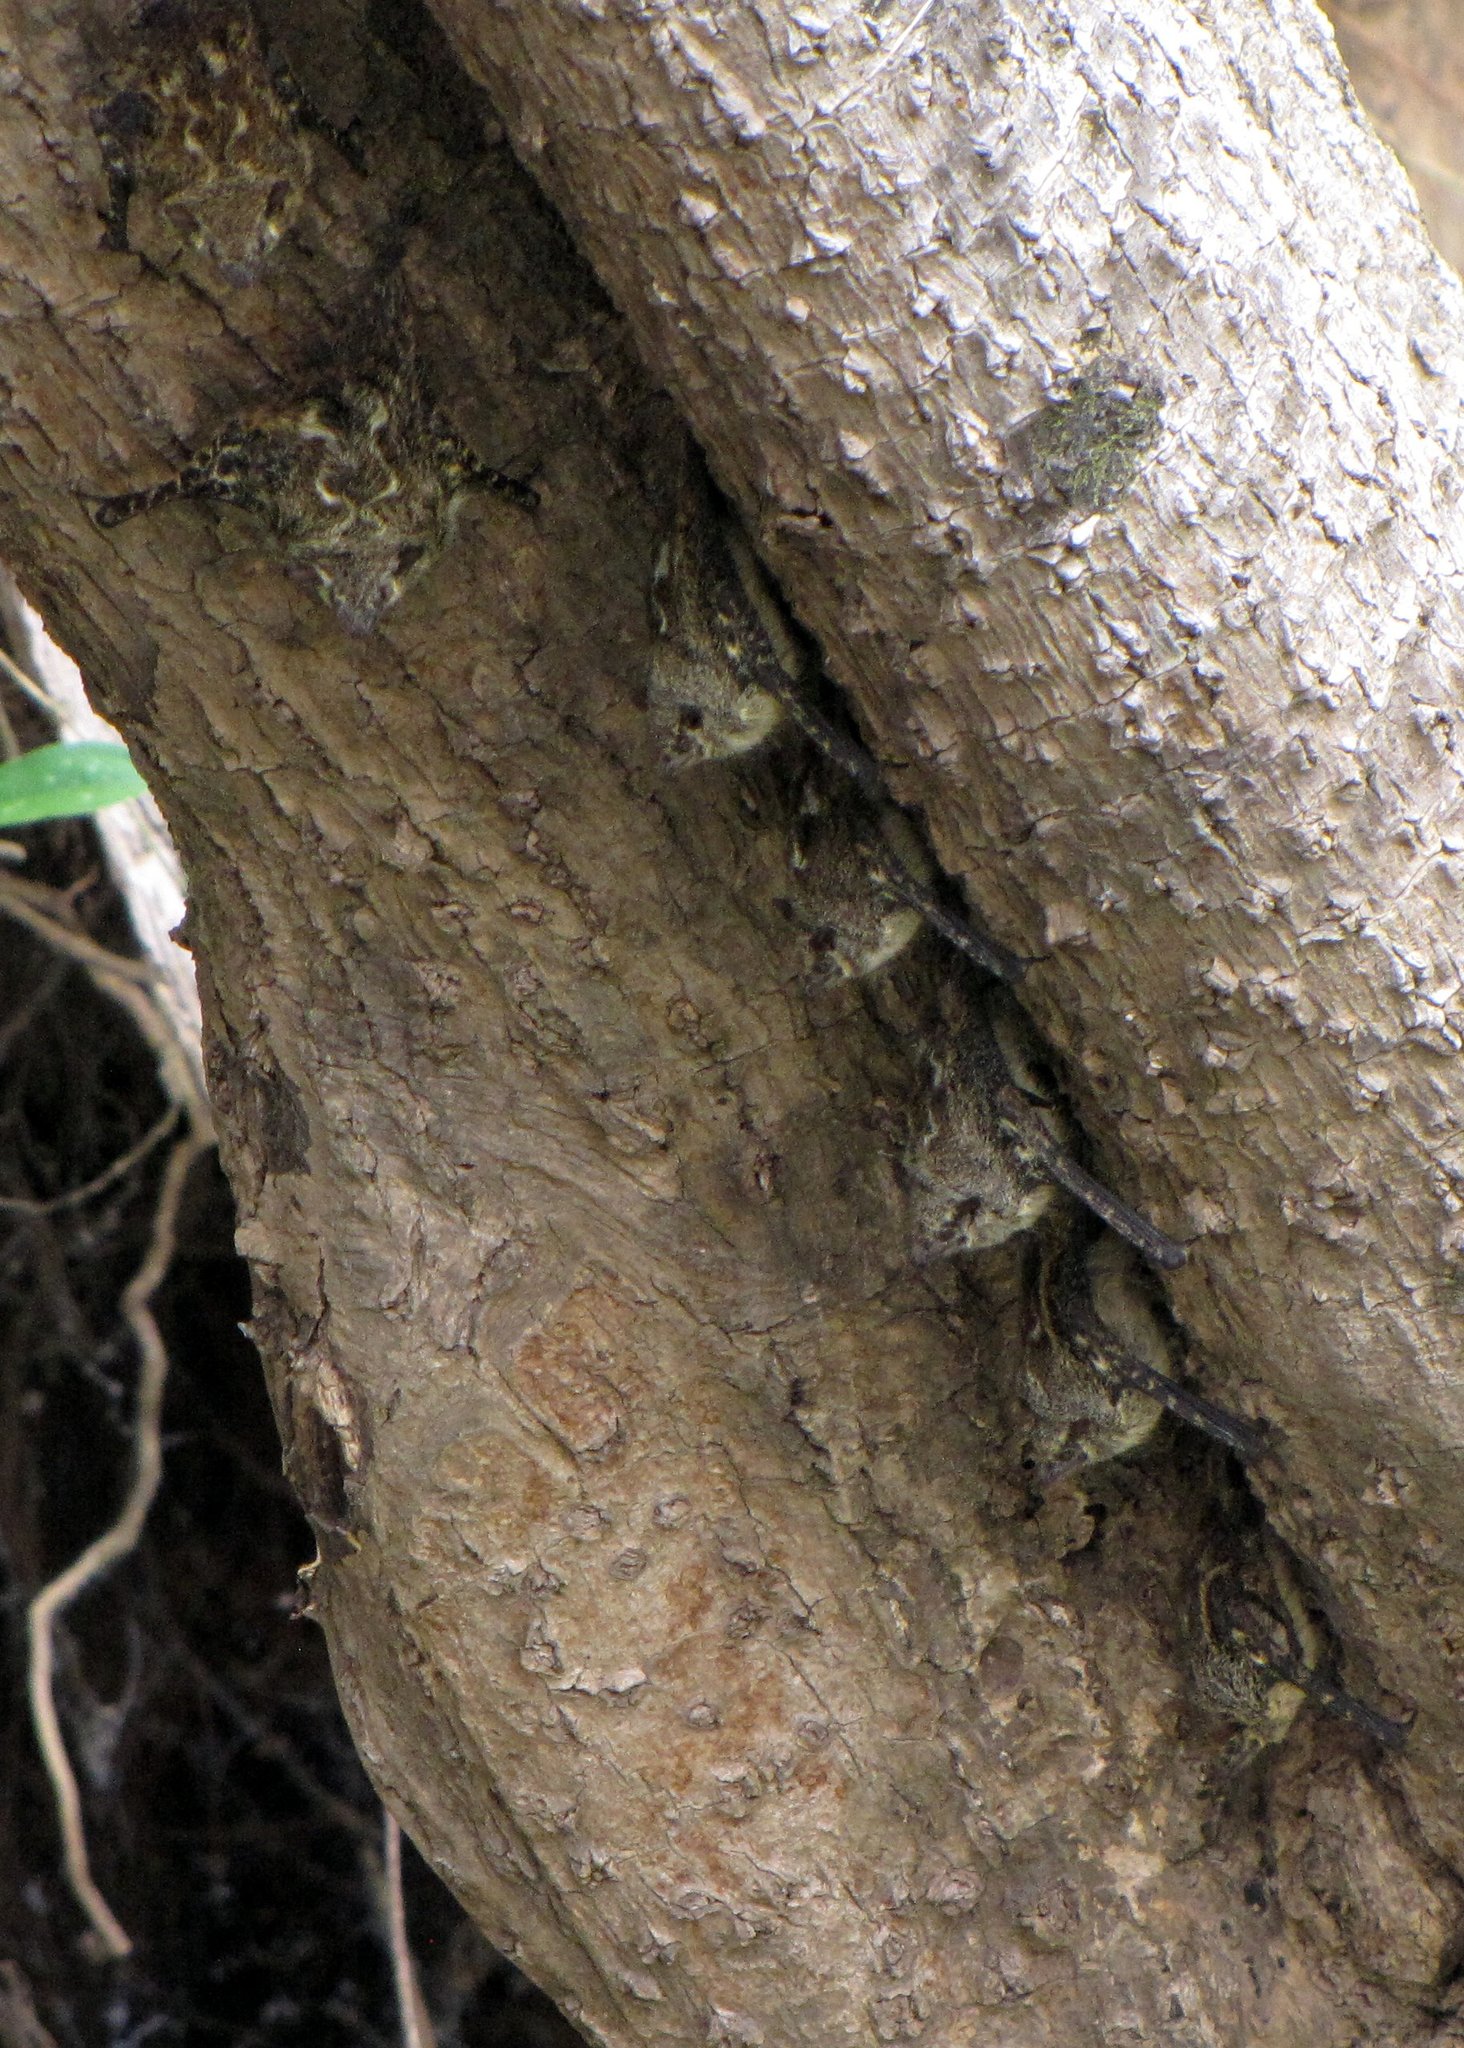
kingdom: Animalia
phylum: Chordata
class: Mammalia
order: Chiroptera
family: Emballonuridae
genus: Rhynchonycteris
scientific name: Rhynchonycteris naso
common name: Proboscis bat
